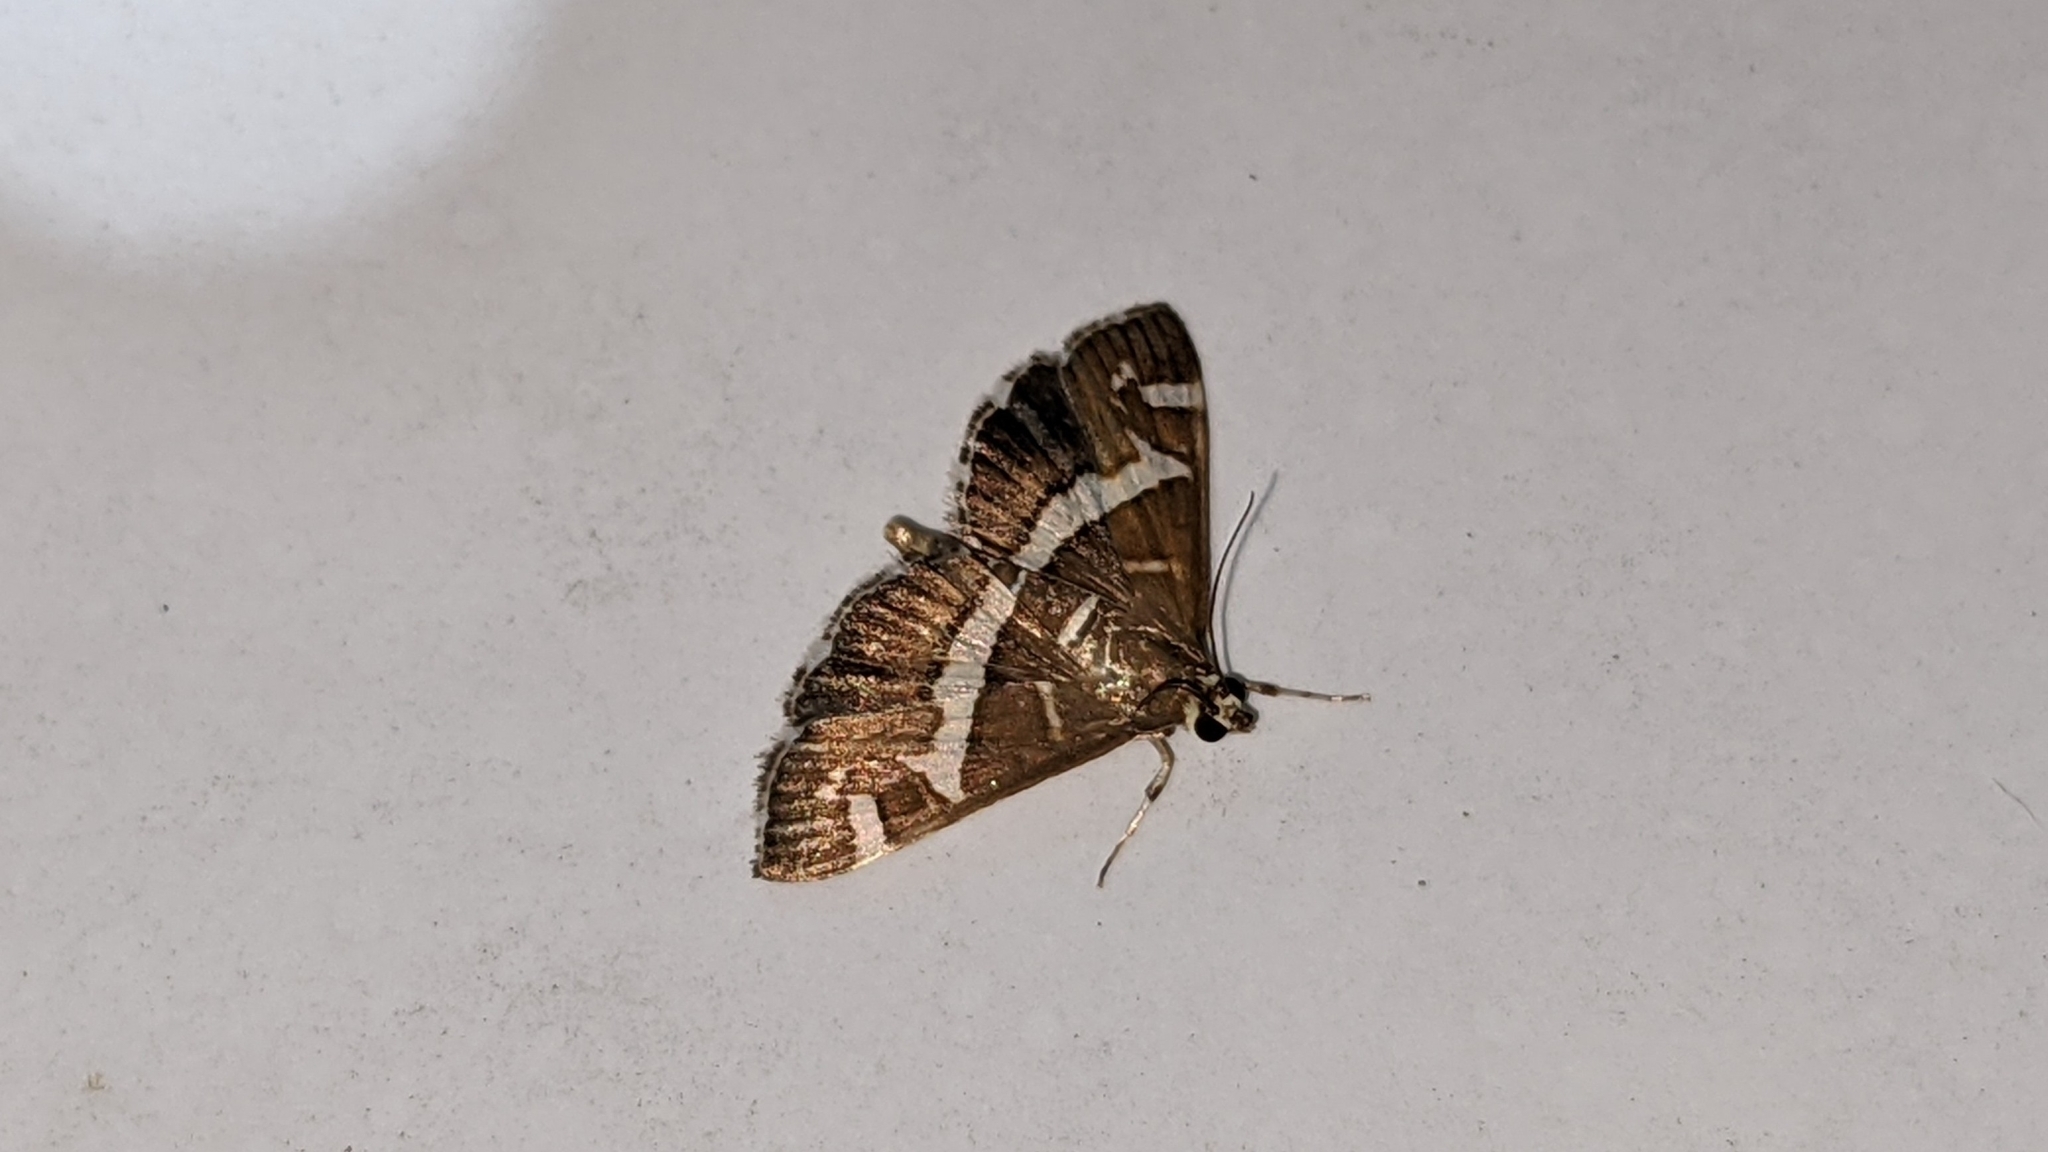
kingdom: Animalia
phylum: Arthropoda
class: Insecta
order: Lepidoptera
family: Crambidae
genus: Spoladea
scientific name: Spoladea recurvalis
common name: Beet webworm moth
